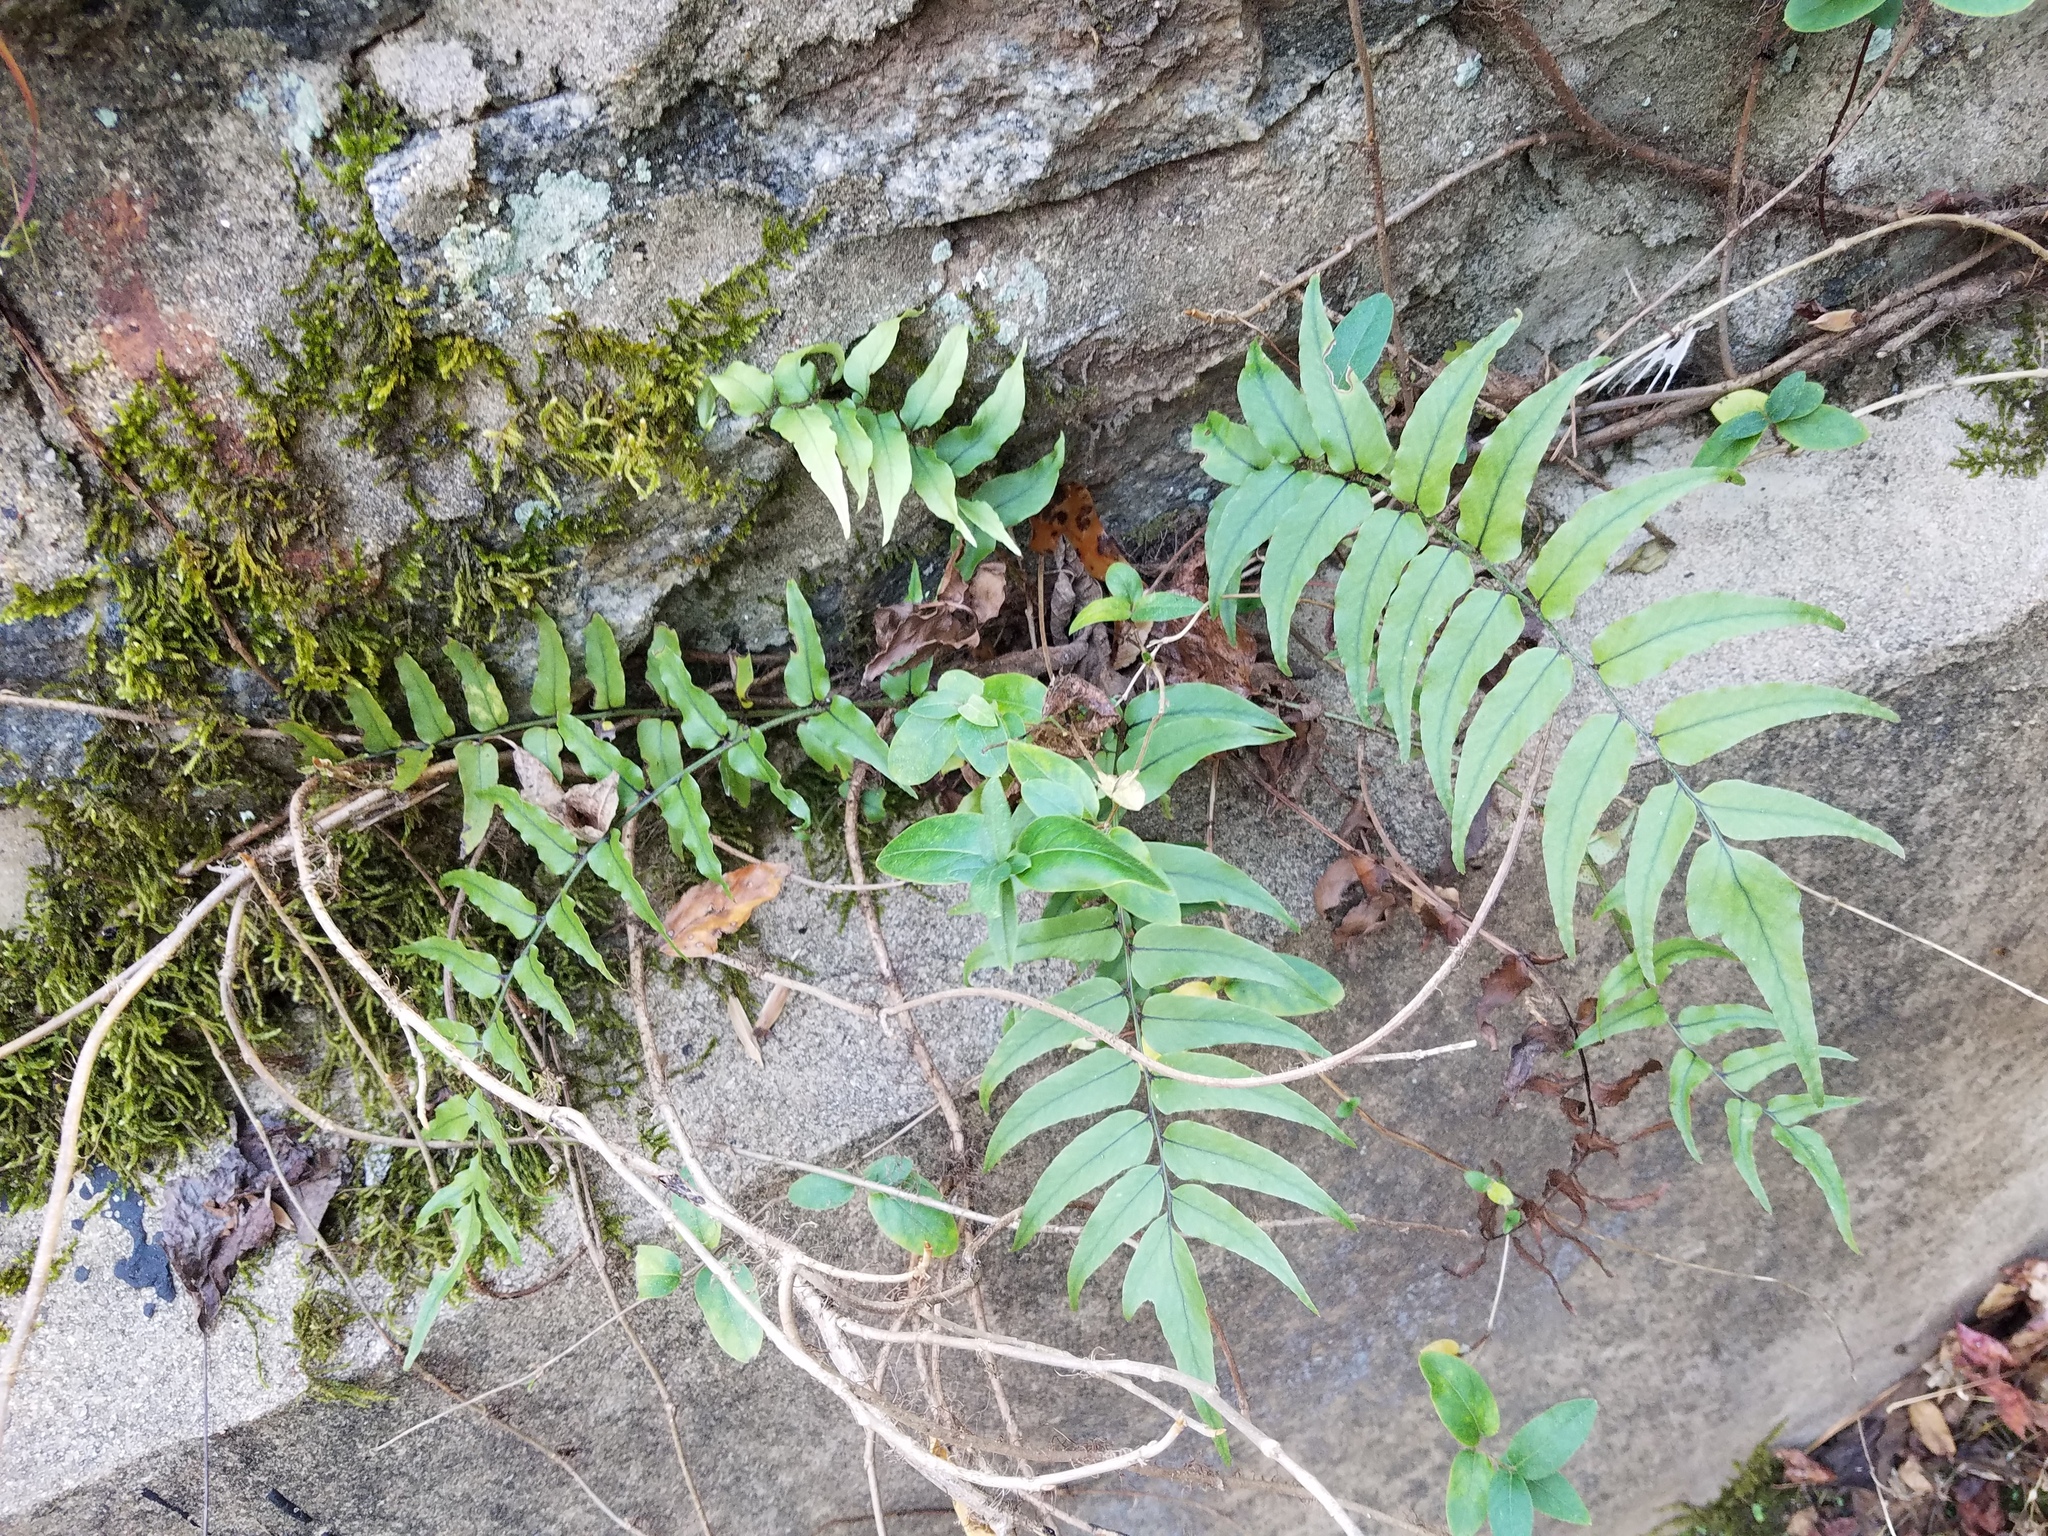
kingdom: Plantae
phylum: Tracheophyta
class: Polypodiopsida
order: Polypodiales
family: Dryopteridaceae
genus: Cyrtomium
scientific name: Cyrtomium fortunei
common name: Asian netvein hollyfern
